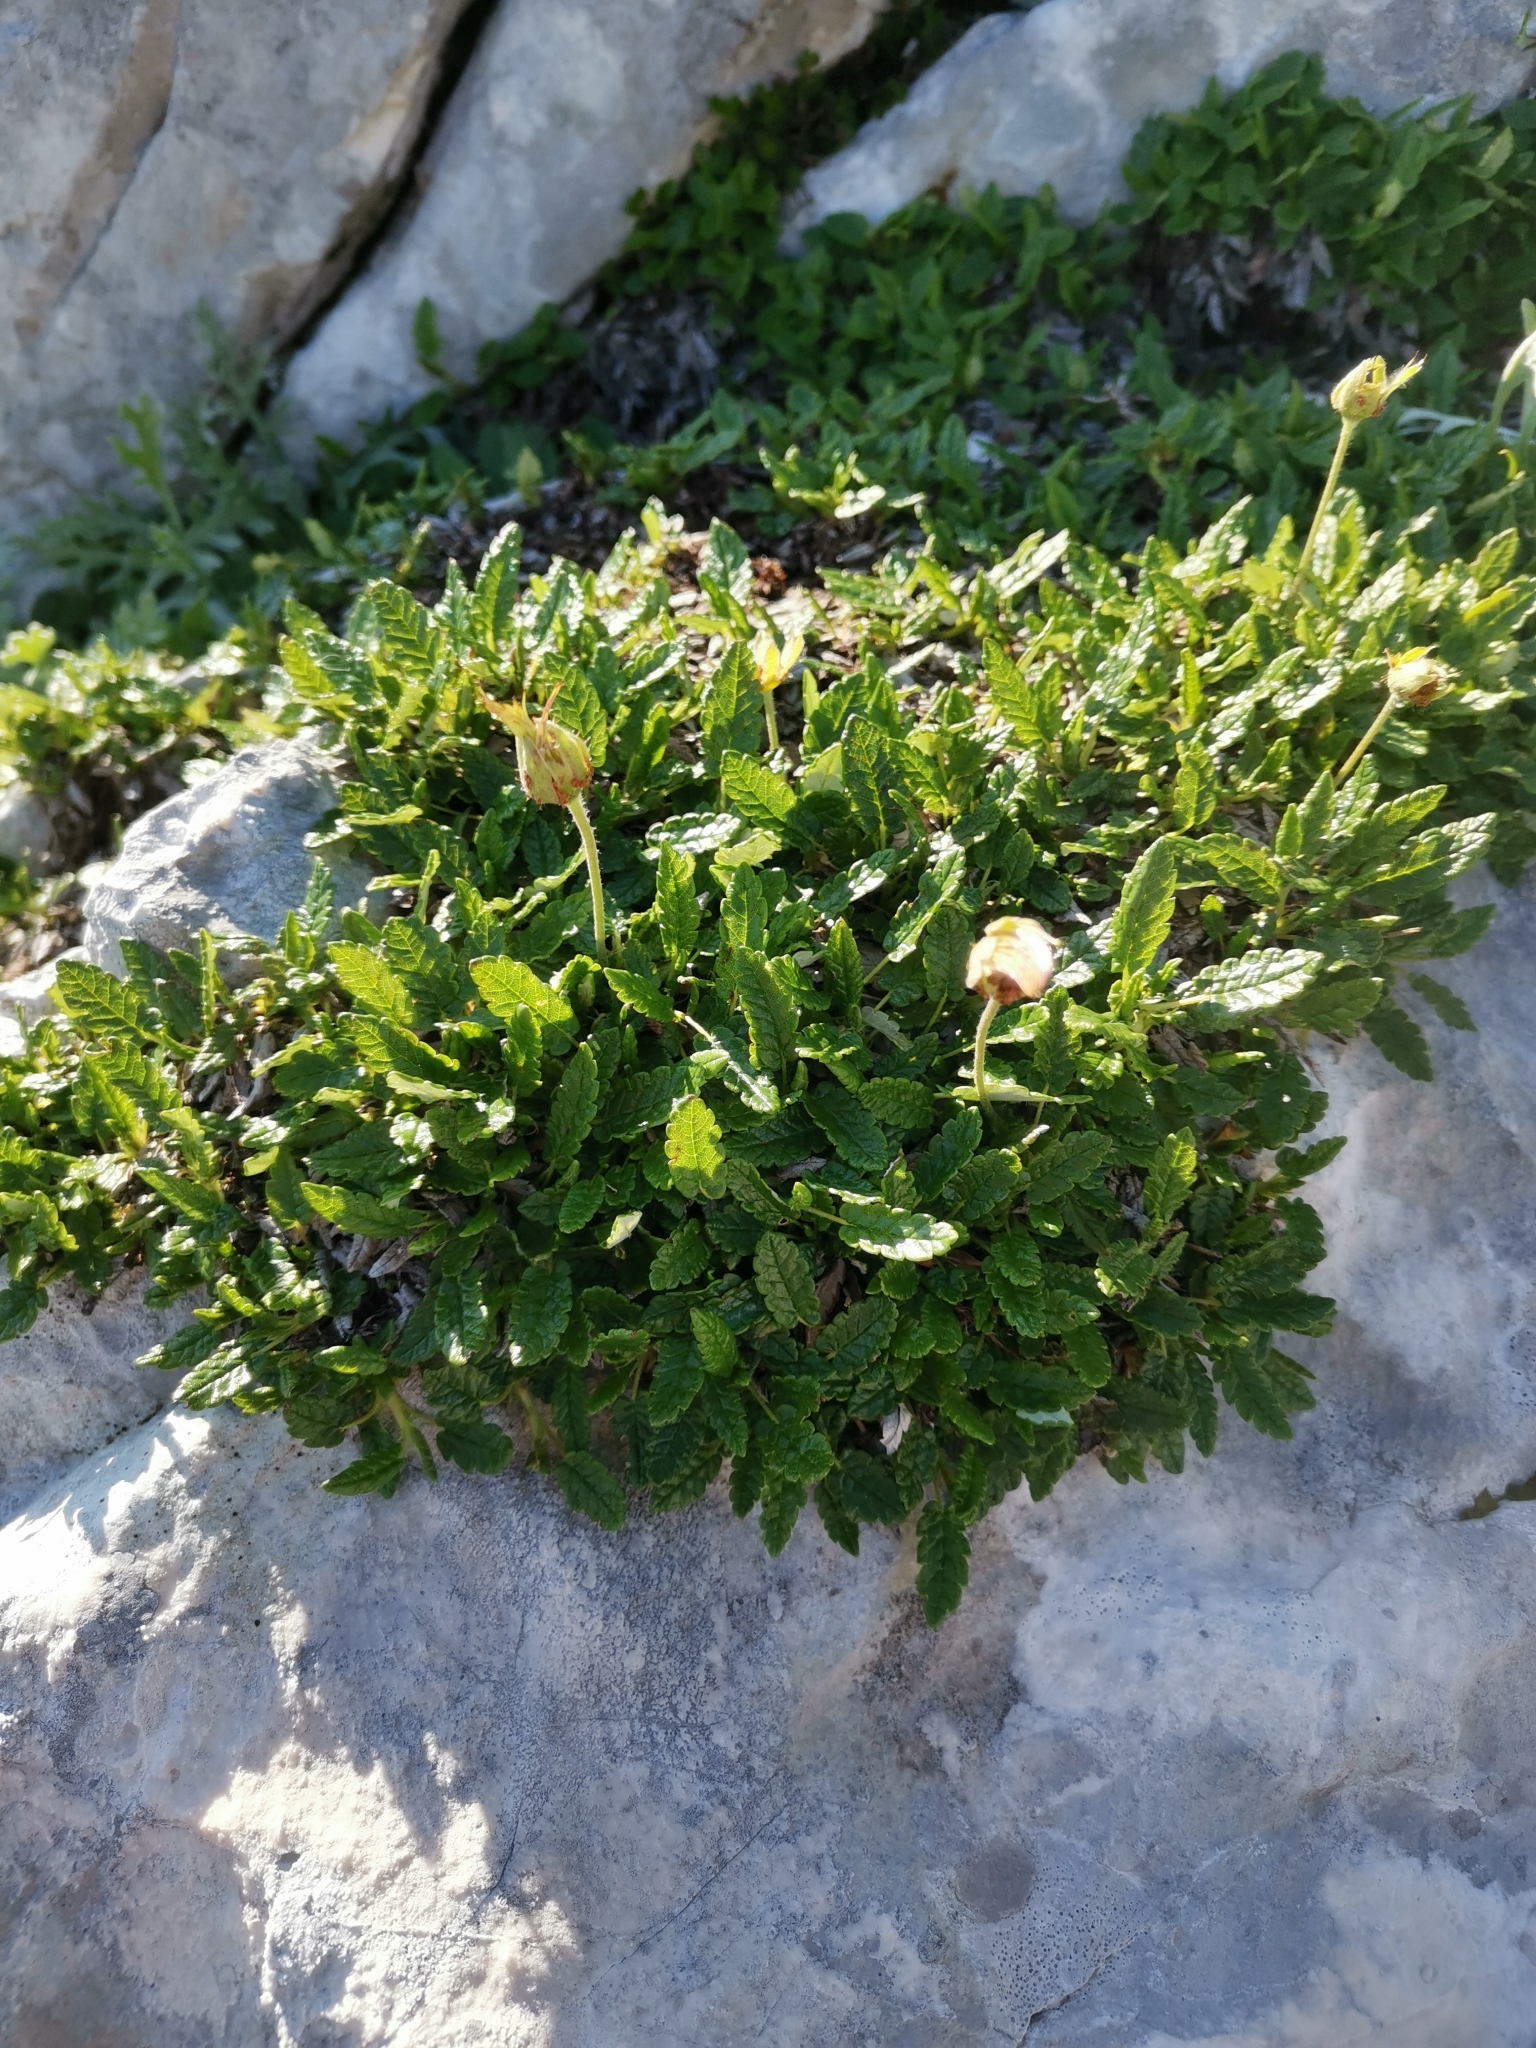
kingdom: Plantae
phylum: Tracheophyta
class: Magnoliopsida
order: Rosales
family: Rosaceae
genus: Dryas
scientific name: Dryas octopetala
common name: Eight-petal mountain-avens
